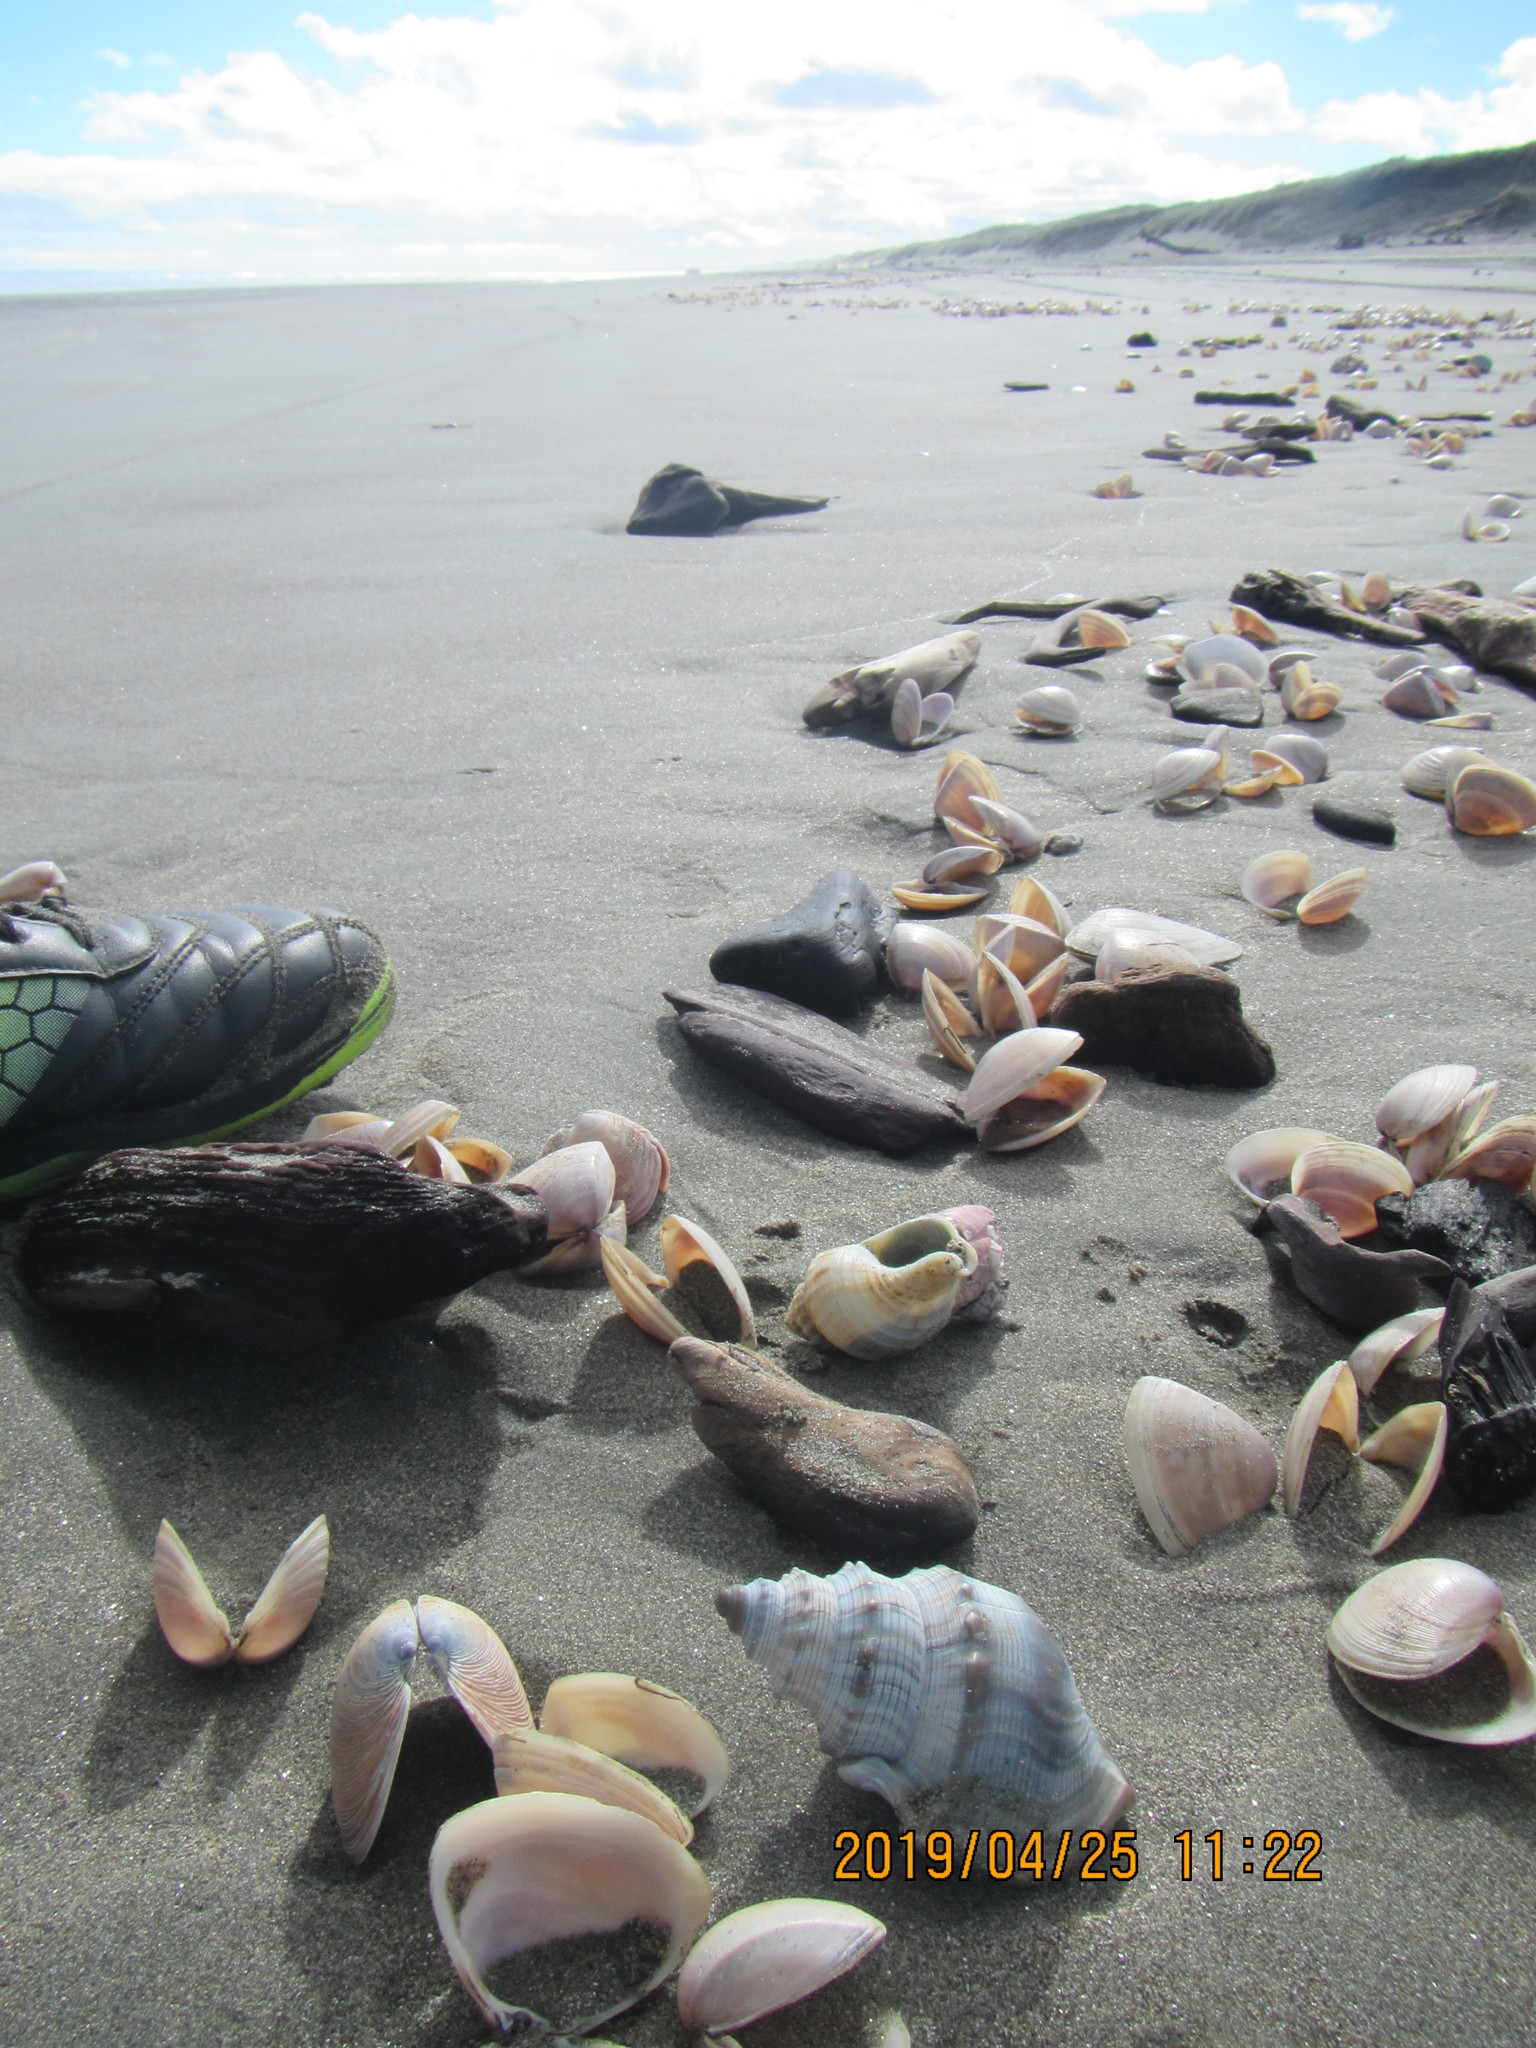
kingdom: Animalia
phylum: Arthropoda
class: Maxillopoda
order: Sessilia
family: Balanidae
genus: Notomegabalanus
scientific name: Notomegabalanus decorus
